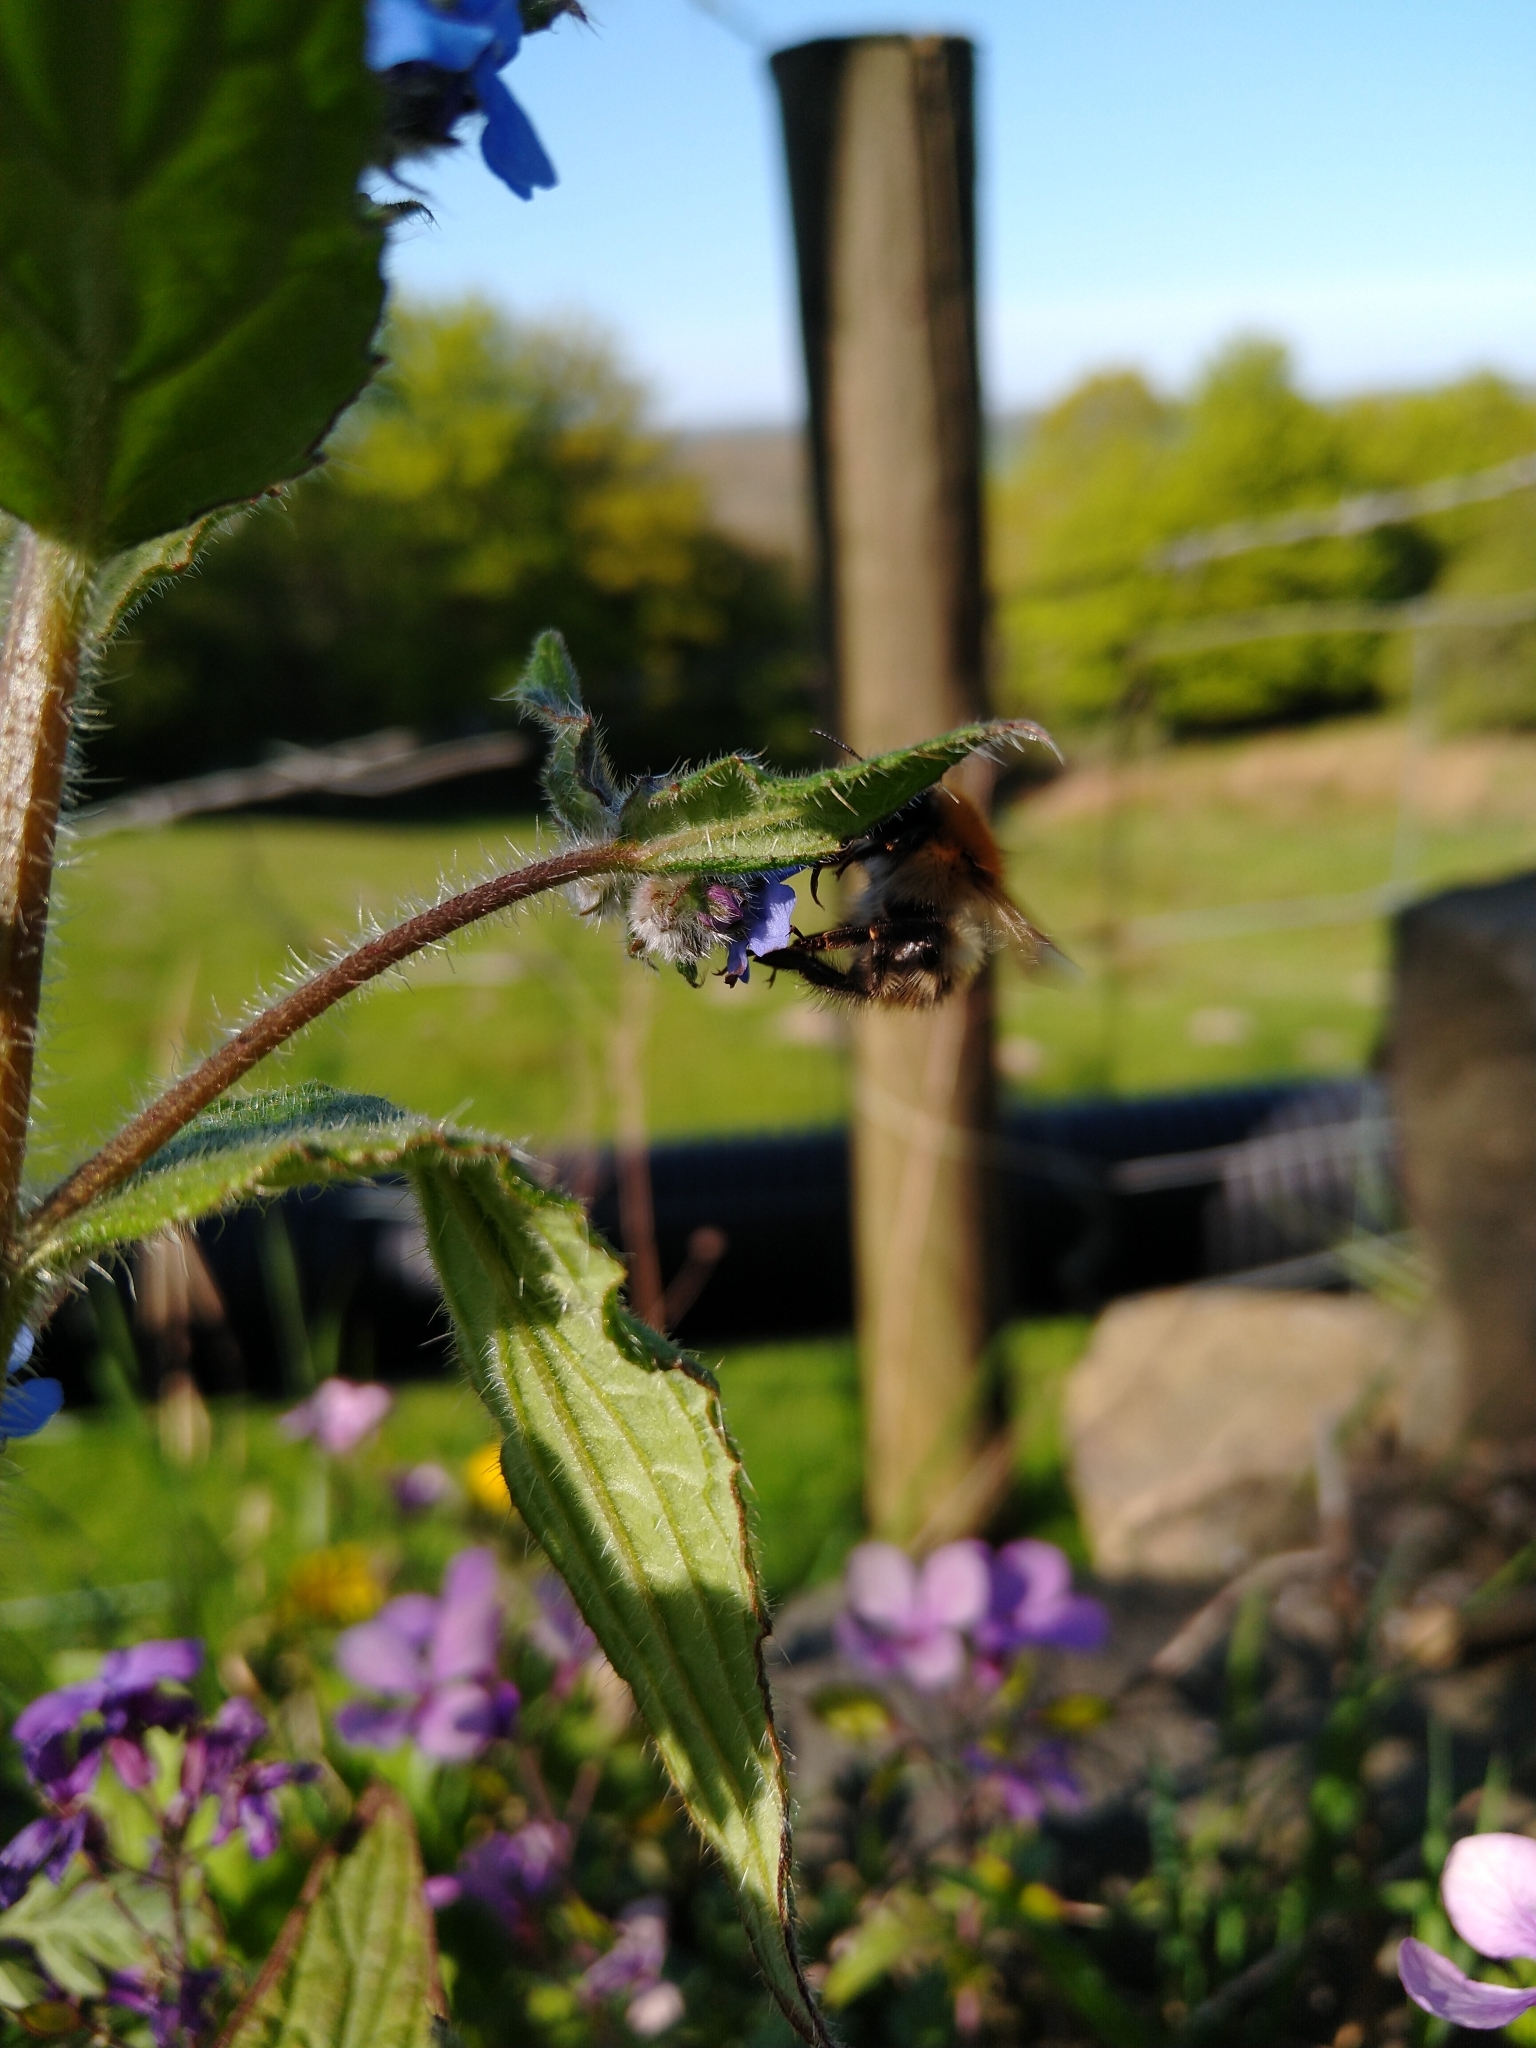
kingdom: Animalia
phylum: Arthropoda
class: Insecta
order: Hymenoptera
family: Apidae
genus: Bombus
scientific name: Bombus pascuorum
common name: Common carder bee
